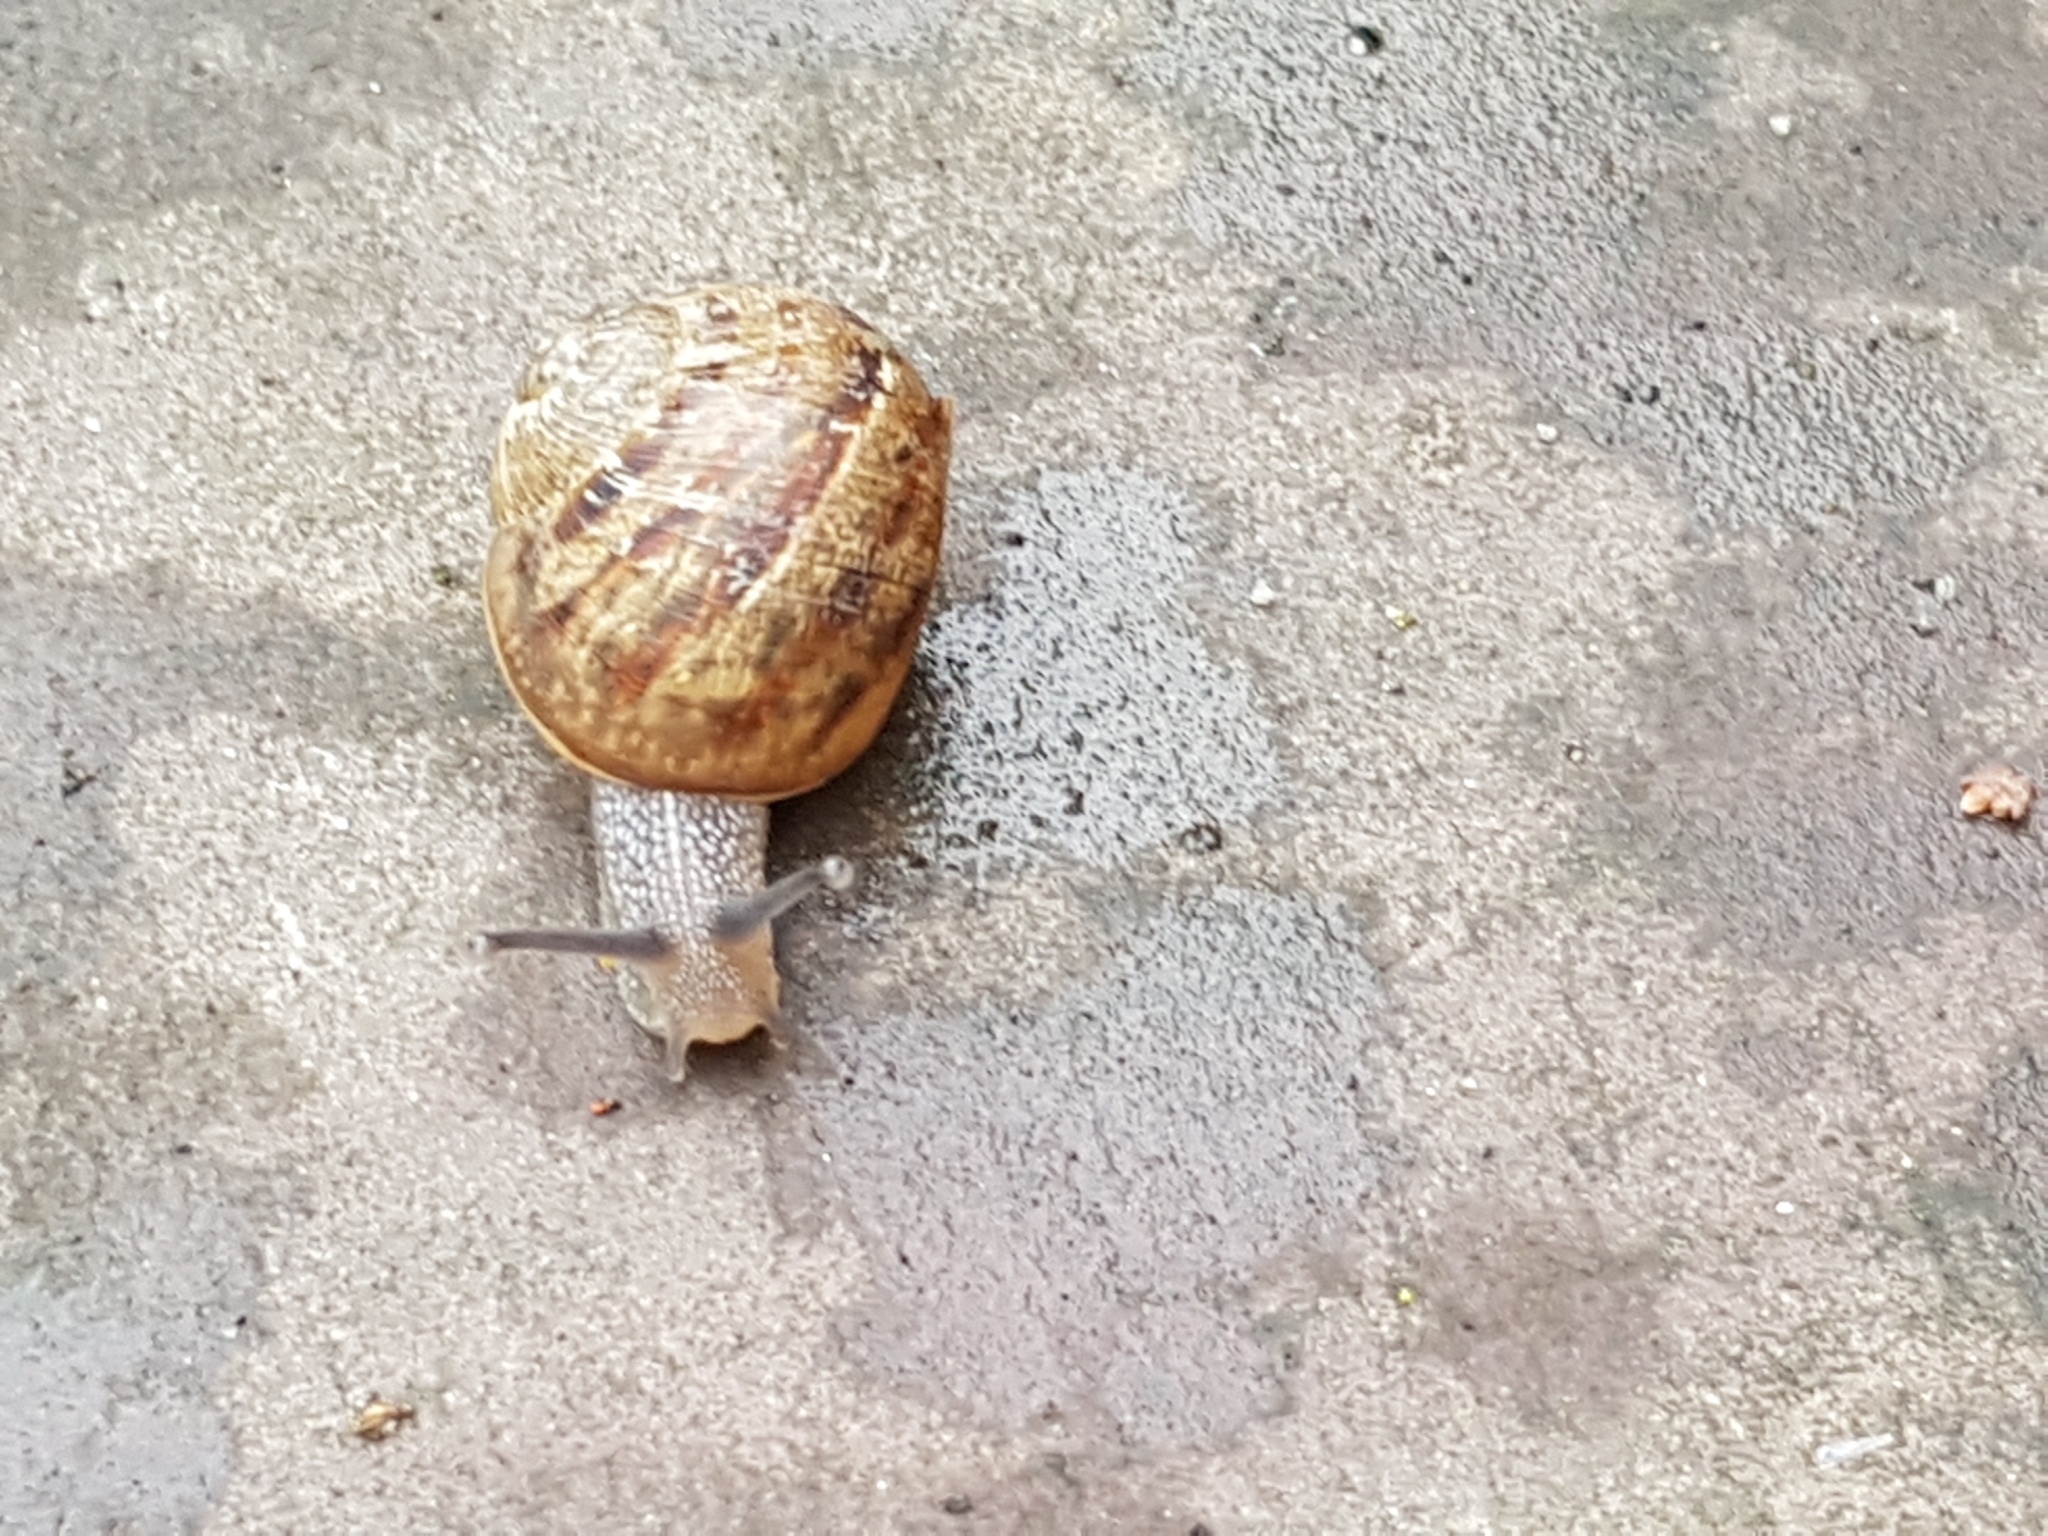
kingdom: Animalia
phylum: Mollusca
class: Gastropoda
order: Stylommatophora
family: Helicidae
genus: Cornu
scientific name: Cornu aspersum
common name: Brown garden snail
